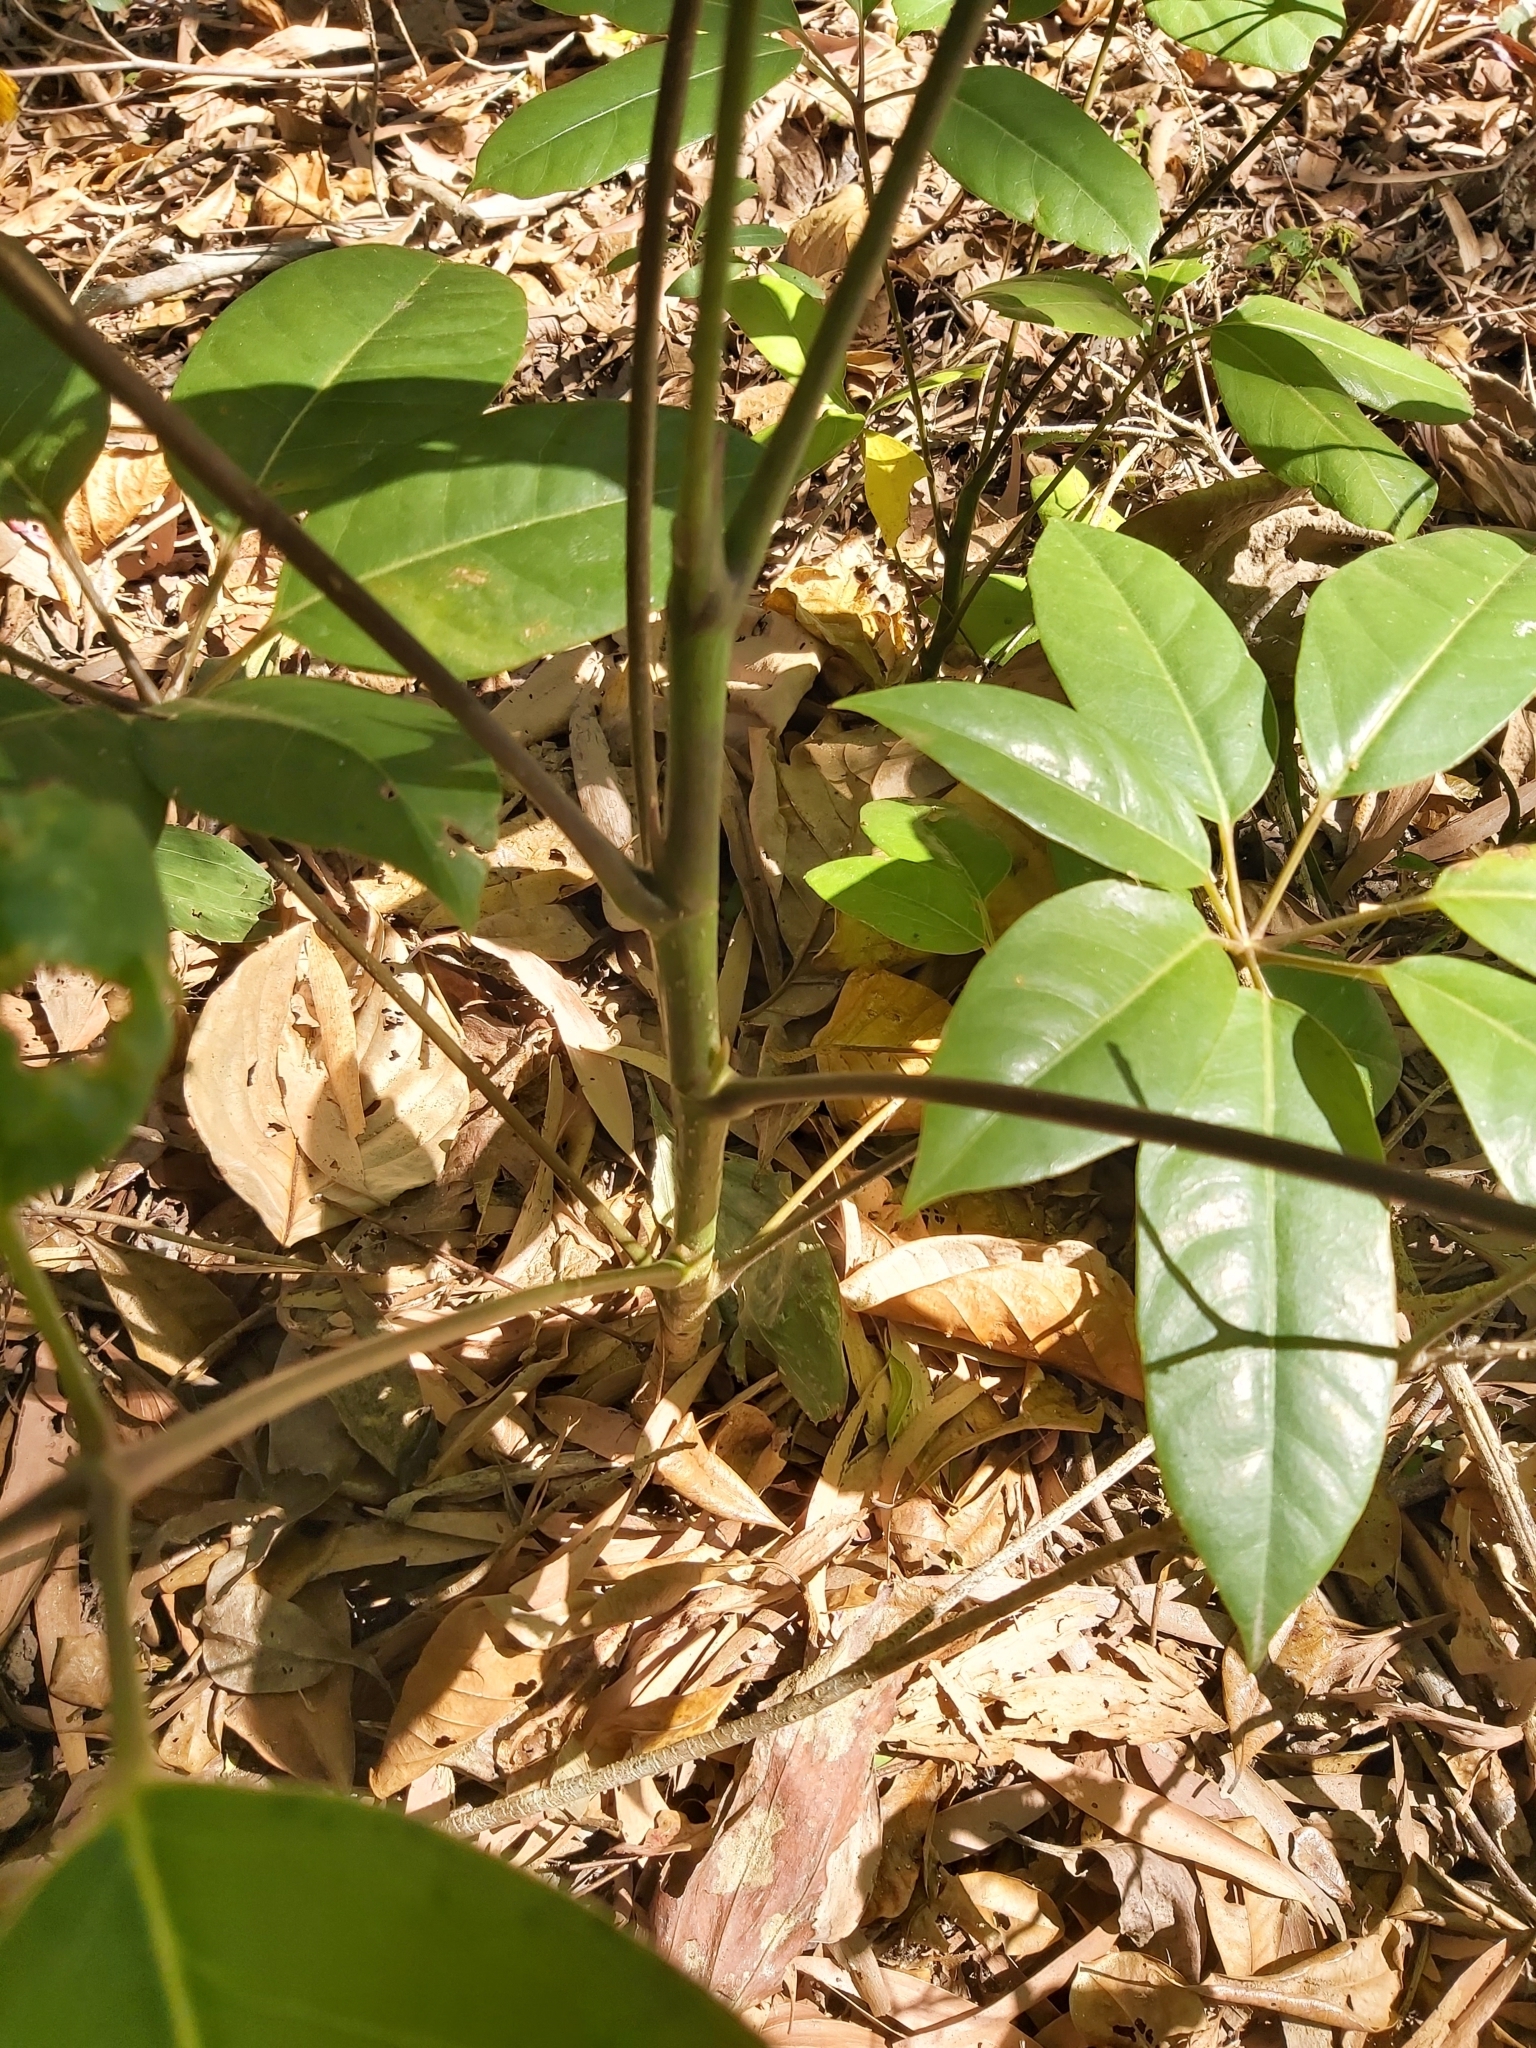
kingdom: Plantae
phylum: Tracheophyta
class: Magnoliopsida
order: Apiales
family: Araliaceae
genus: Heptapleurum
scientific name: Heptapleurum actinophyllum
